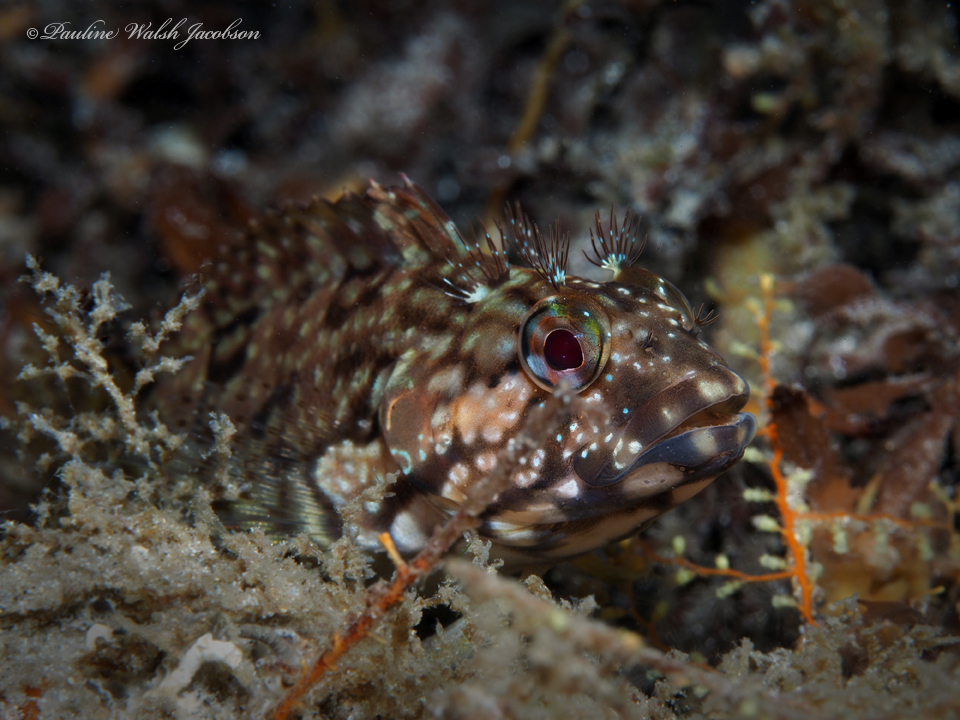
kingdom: Animalia
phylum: Chordata
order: Perciformes
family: Labrisomidae
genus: Labrisomus
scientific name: Labrisomus conditus
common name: Masquerader hairy blenny
